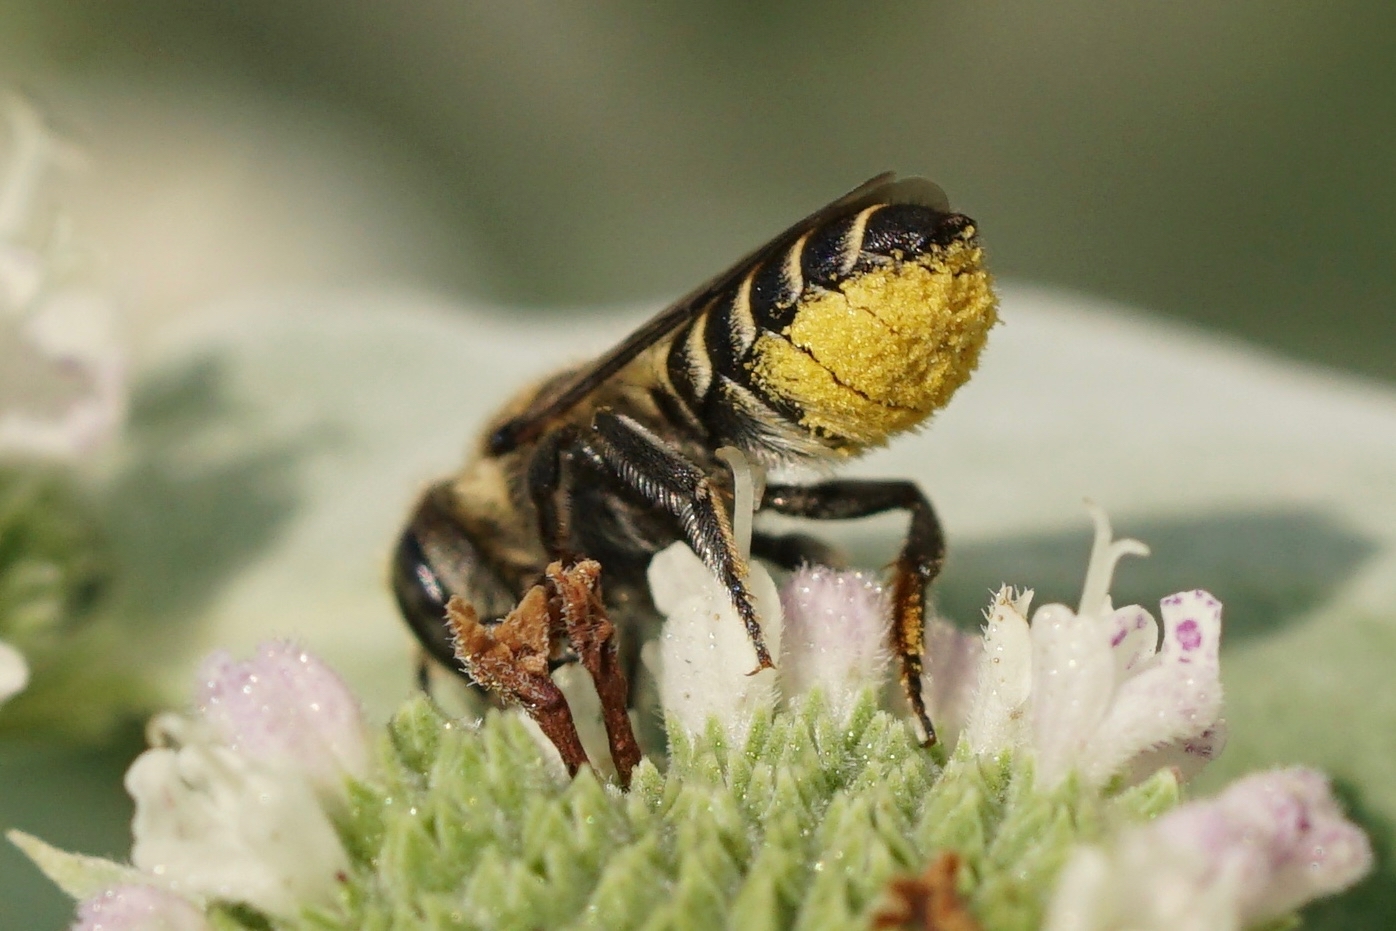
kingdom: Animalia
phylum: Arthropoda
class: Insecta
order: Hymenoptera
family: Megachilidae
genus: Megachile
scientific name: Megachile rotundata
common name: Alfalfa leafcutting bee
